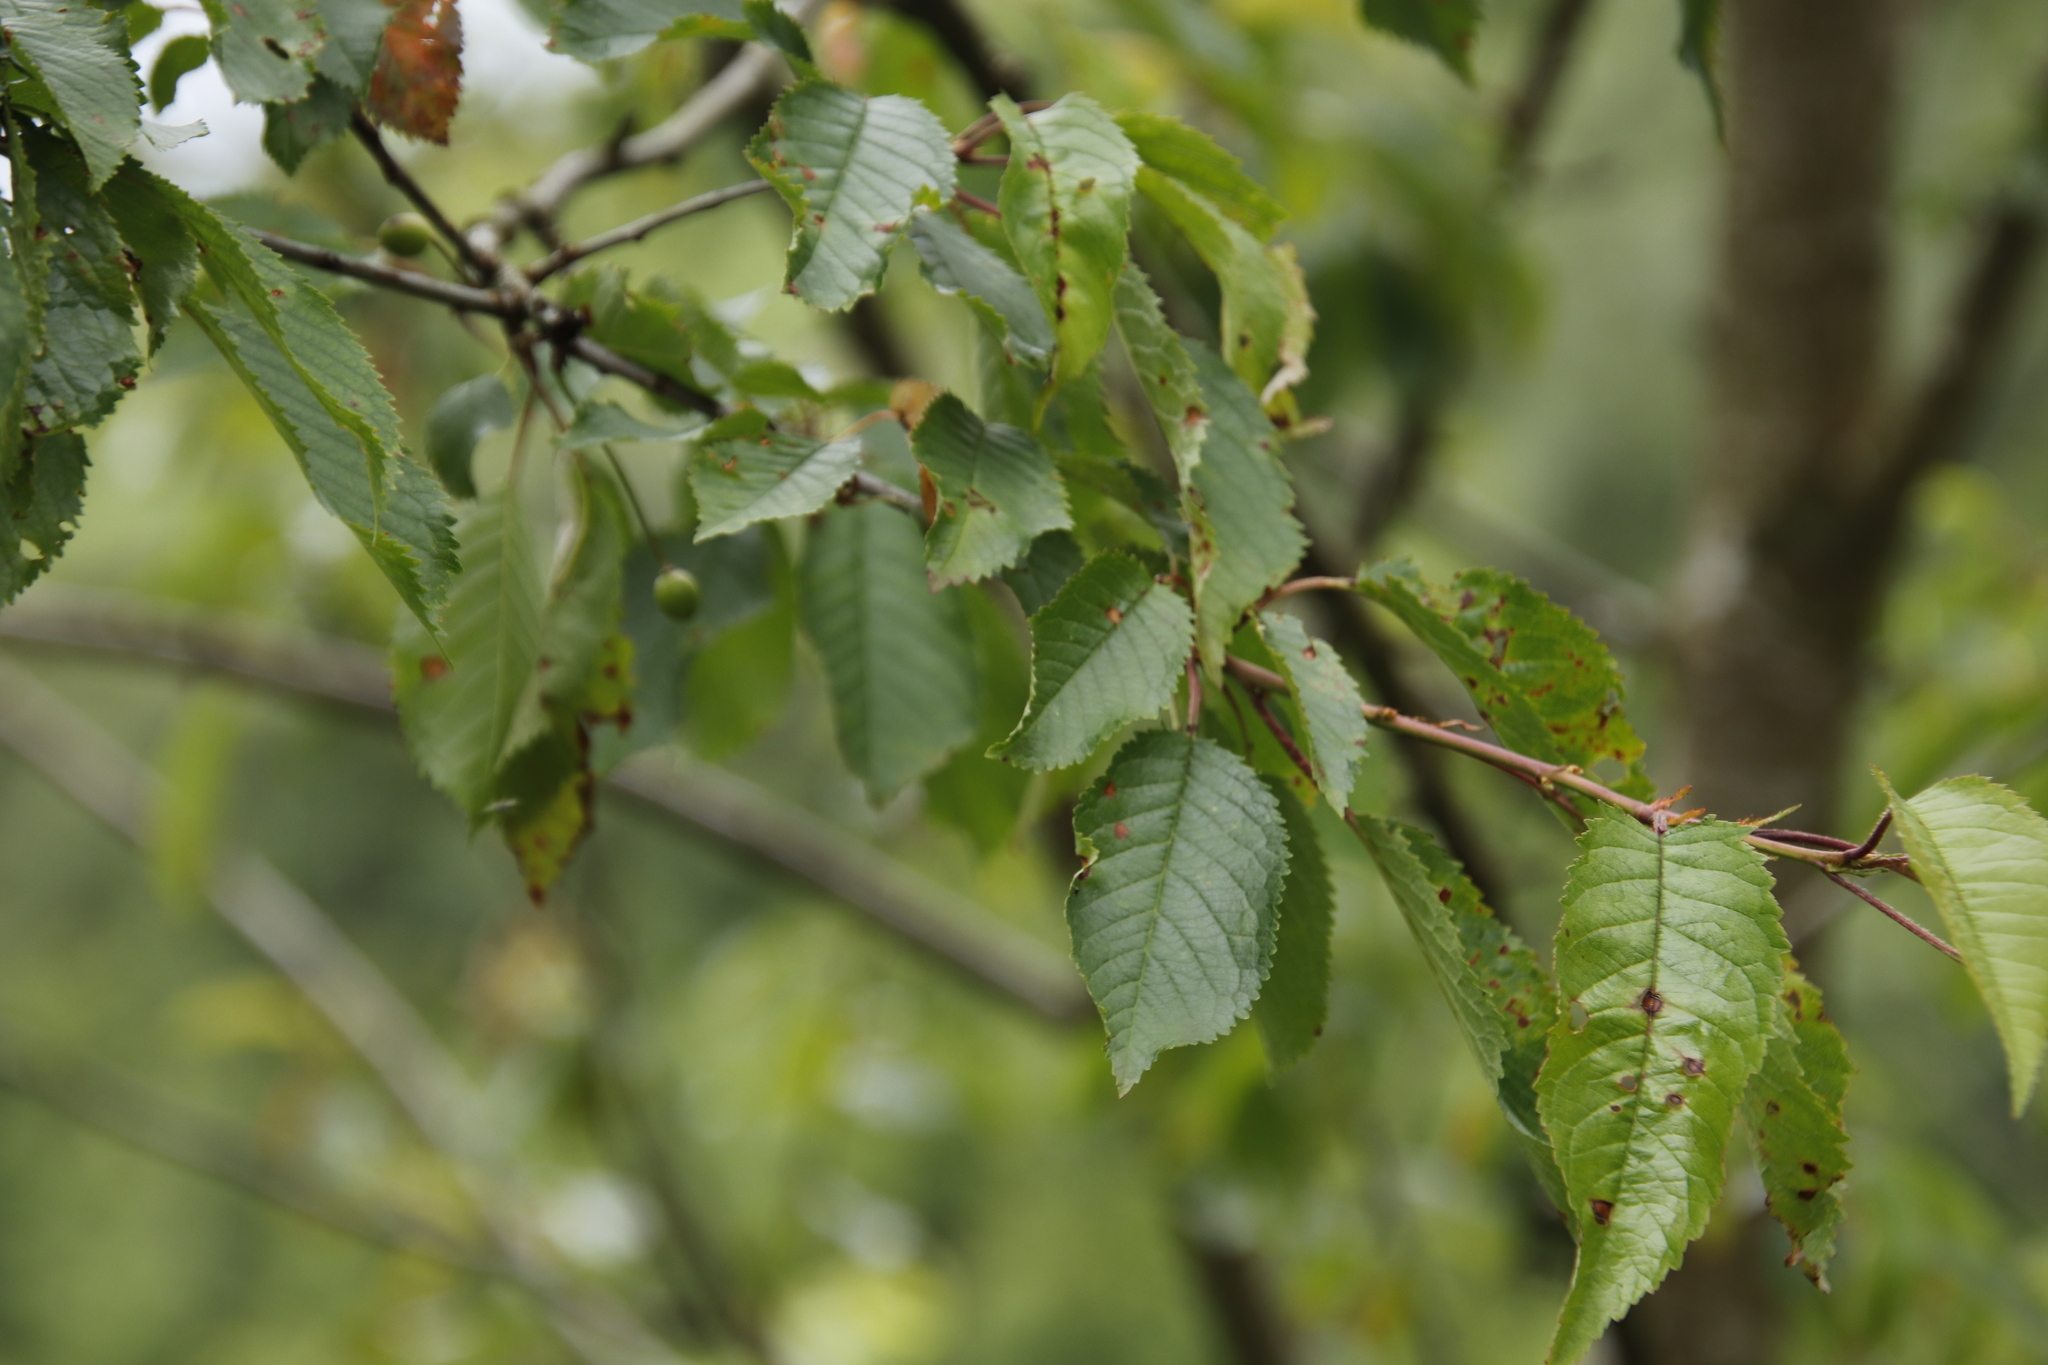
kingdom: Plantae
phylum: Tracheophyta
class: Magnoliopsida
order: Rosales
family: Rosaceae
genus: Prunus
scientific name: Prunus avium
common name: Sweet cherry
